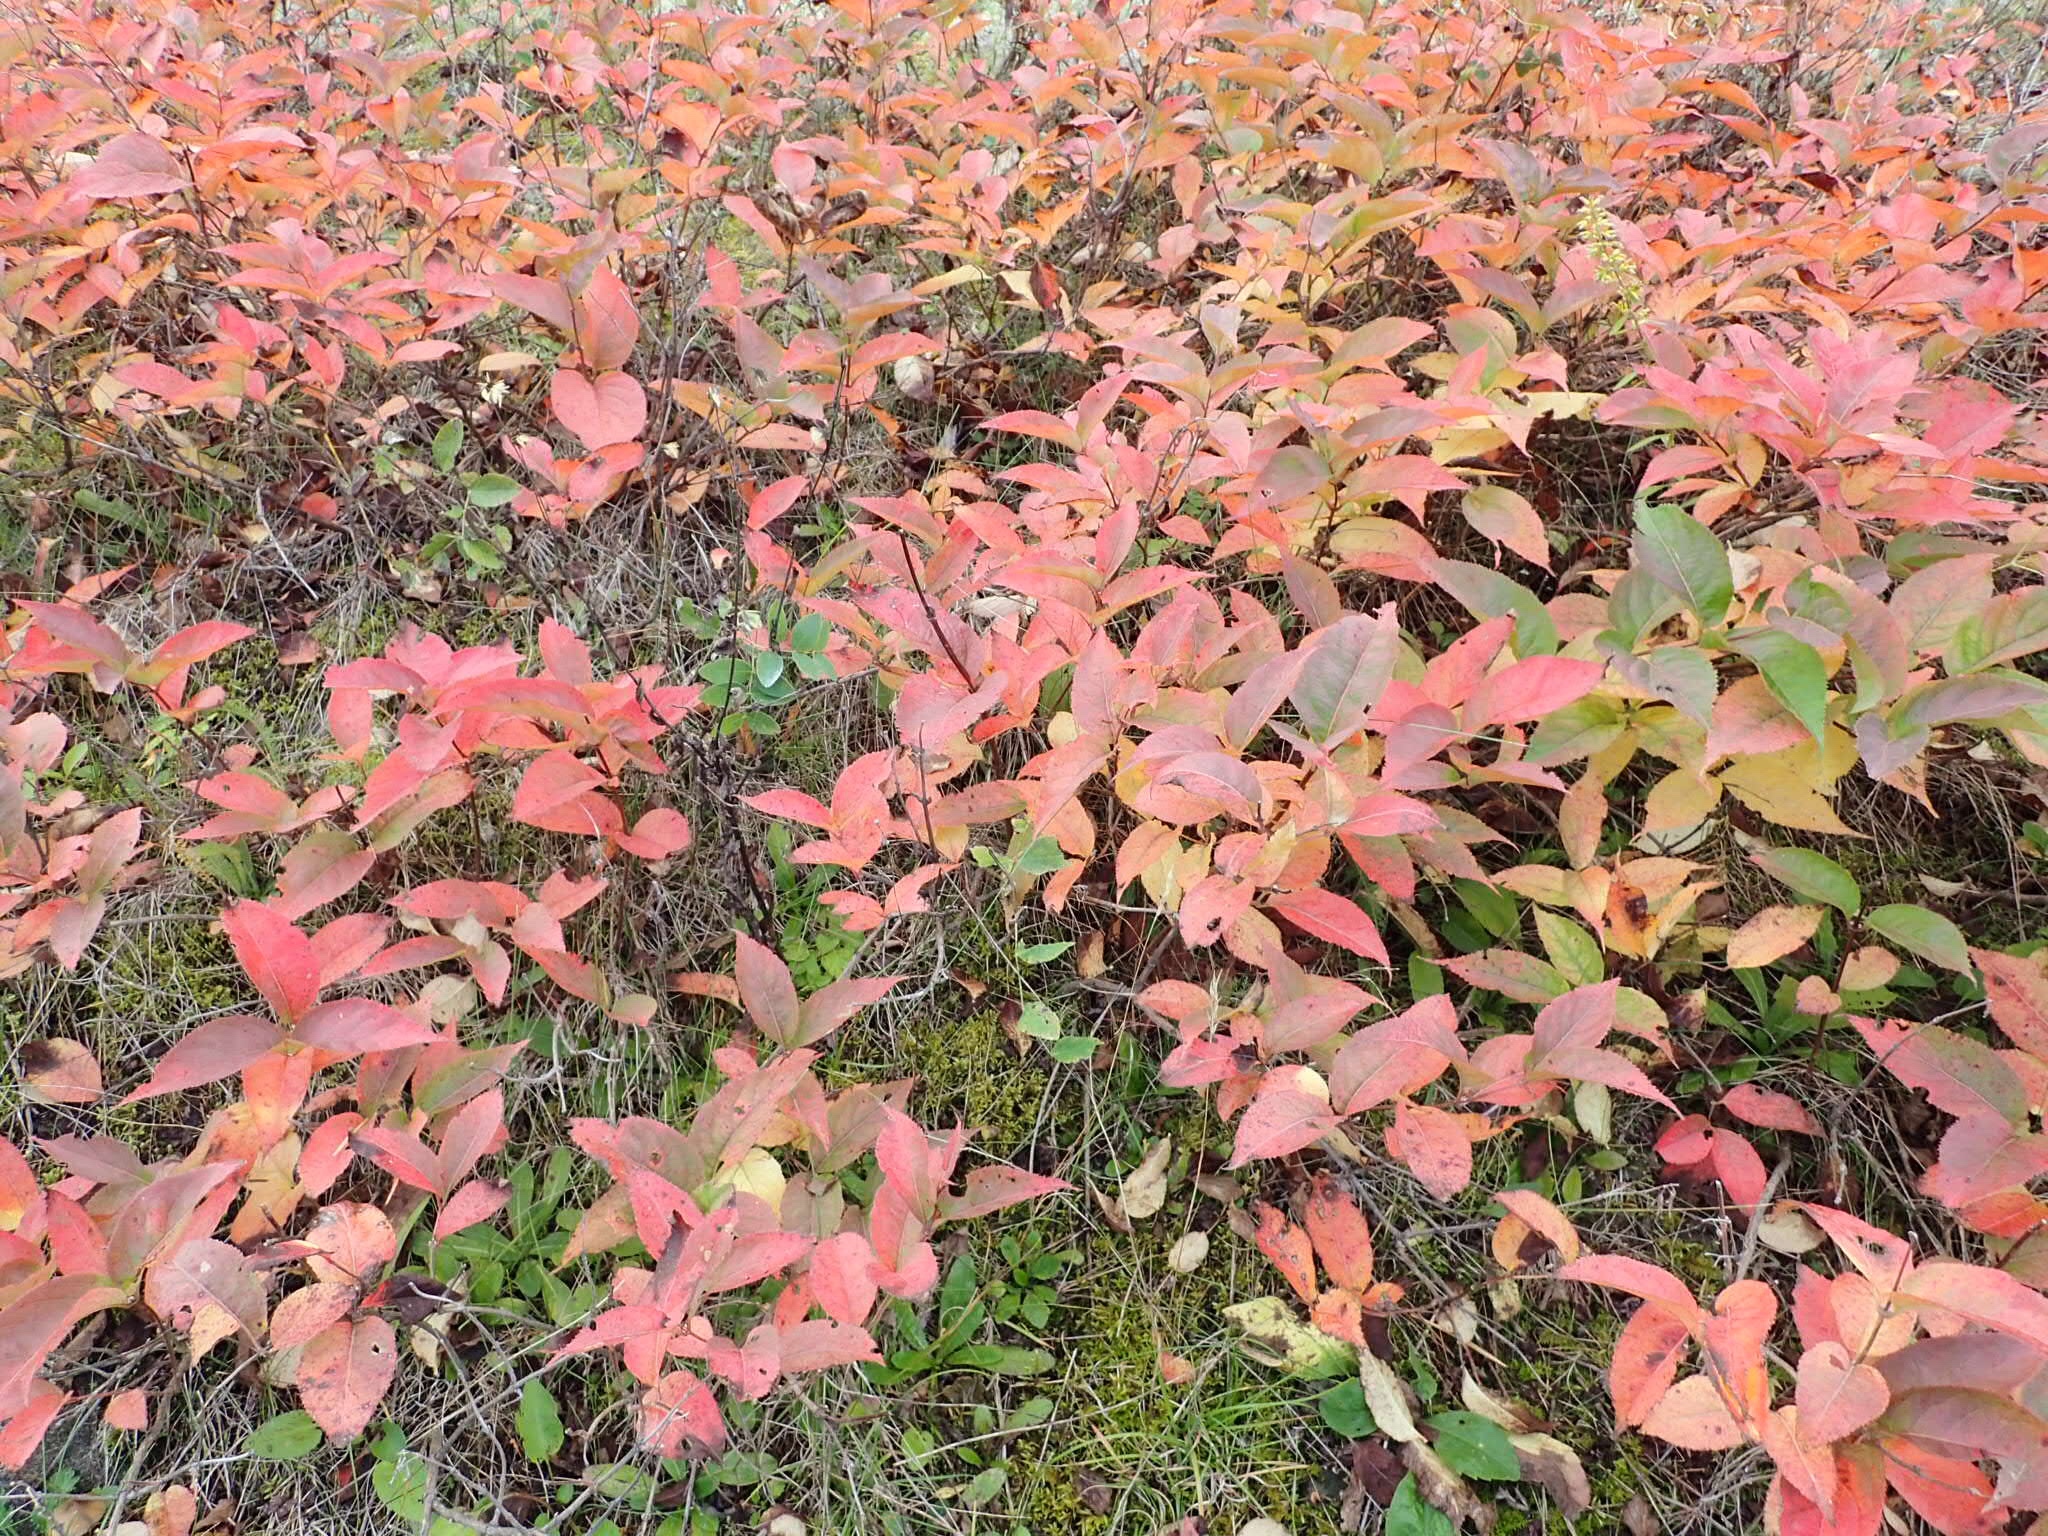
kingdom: Plantae
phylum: Tracheophyta
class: Magnoliopsida
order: Dipsacales
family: Caprifoliaceae
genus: Diervilla
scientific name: Diervilla lonicera
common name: Bush-honeysuckle
